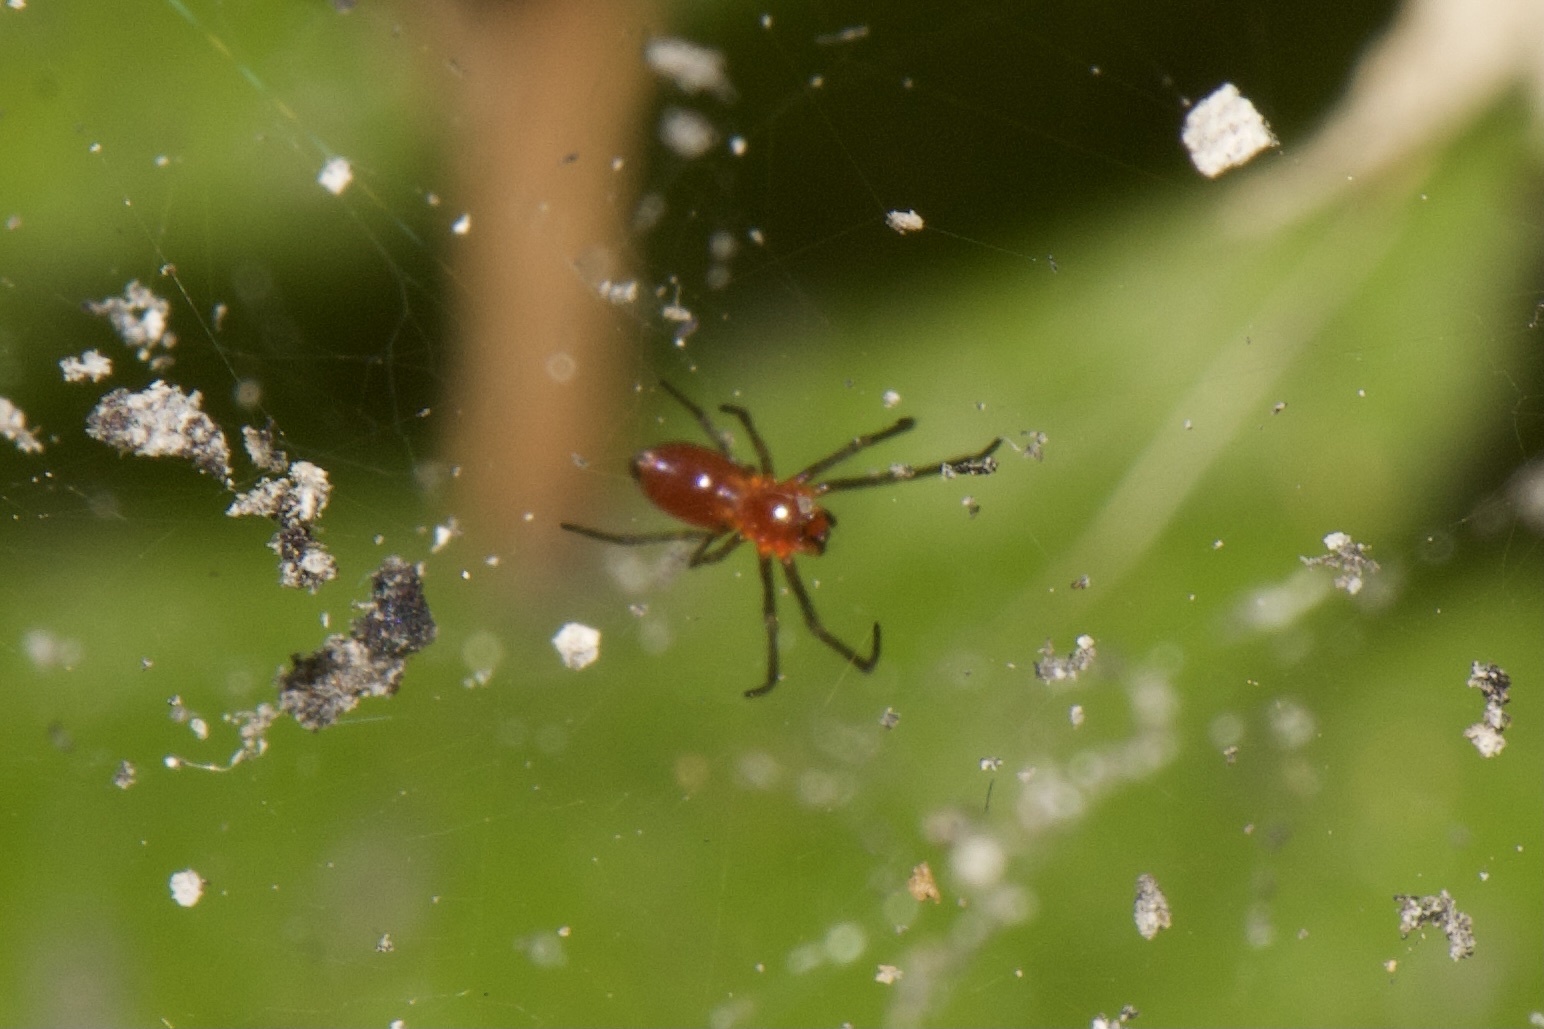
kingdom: Animalia
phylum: Arthropoda
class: Arachnida
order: Araneae
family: Linyphiidae
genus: Florinda
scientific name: Florinda coccinea
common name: Black-tailed red sheetweaver
